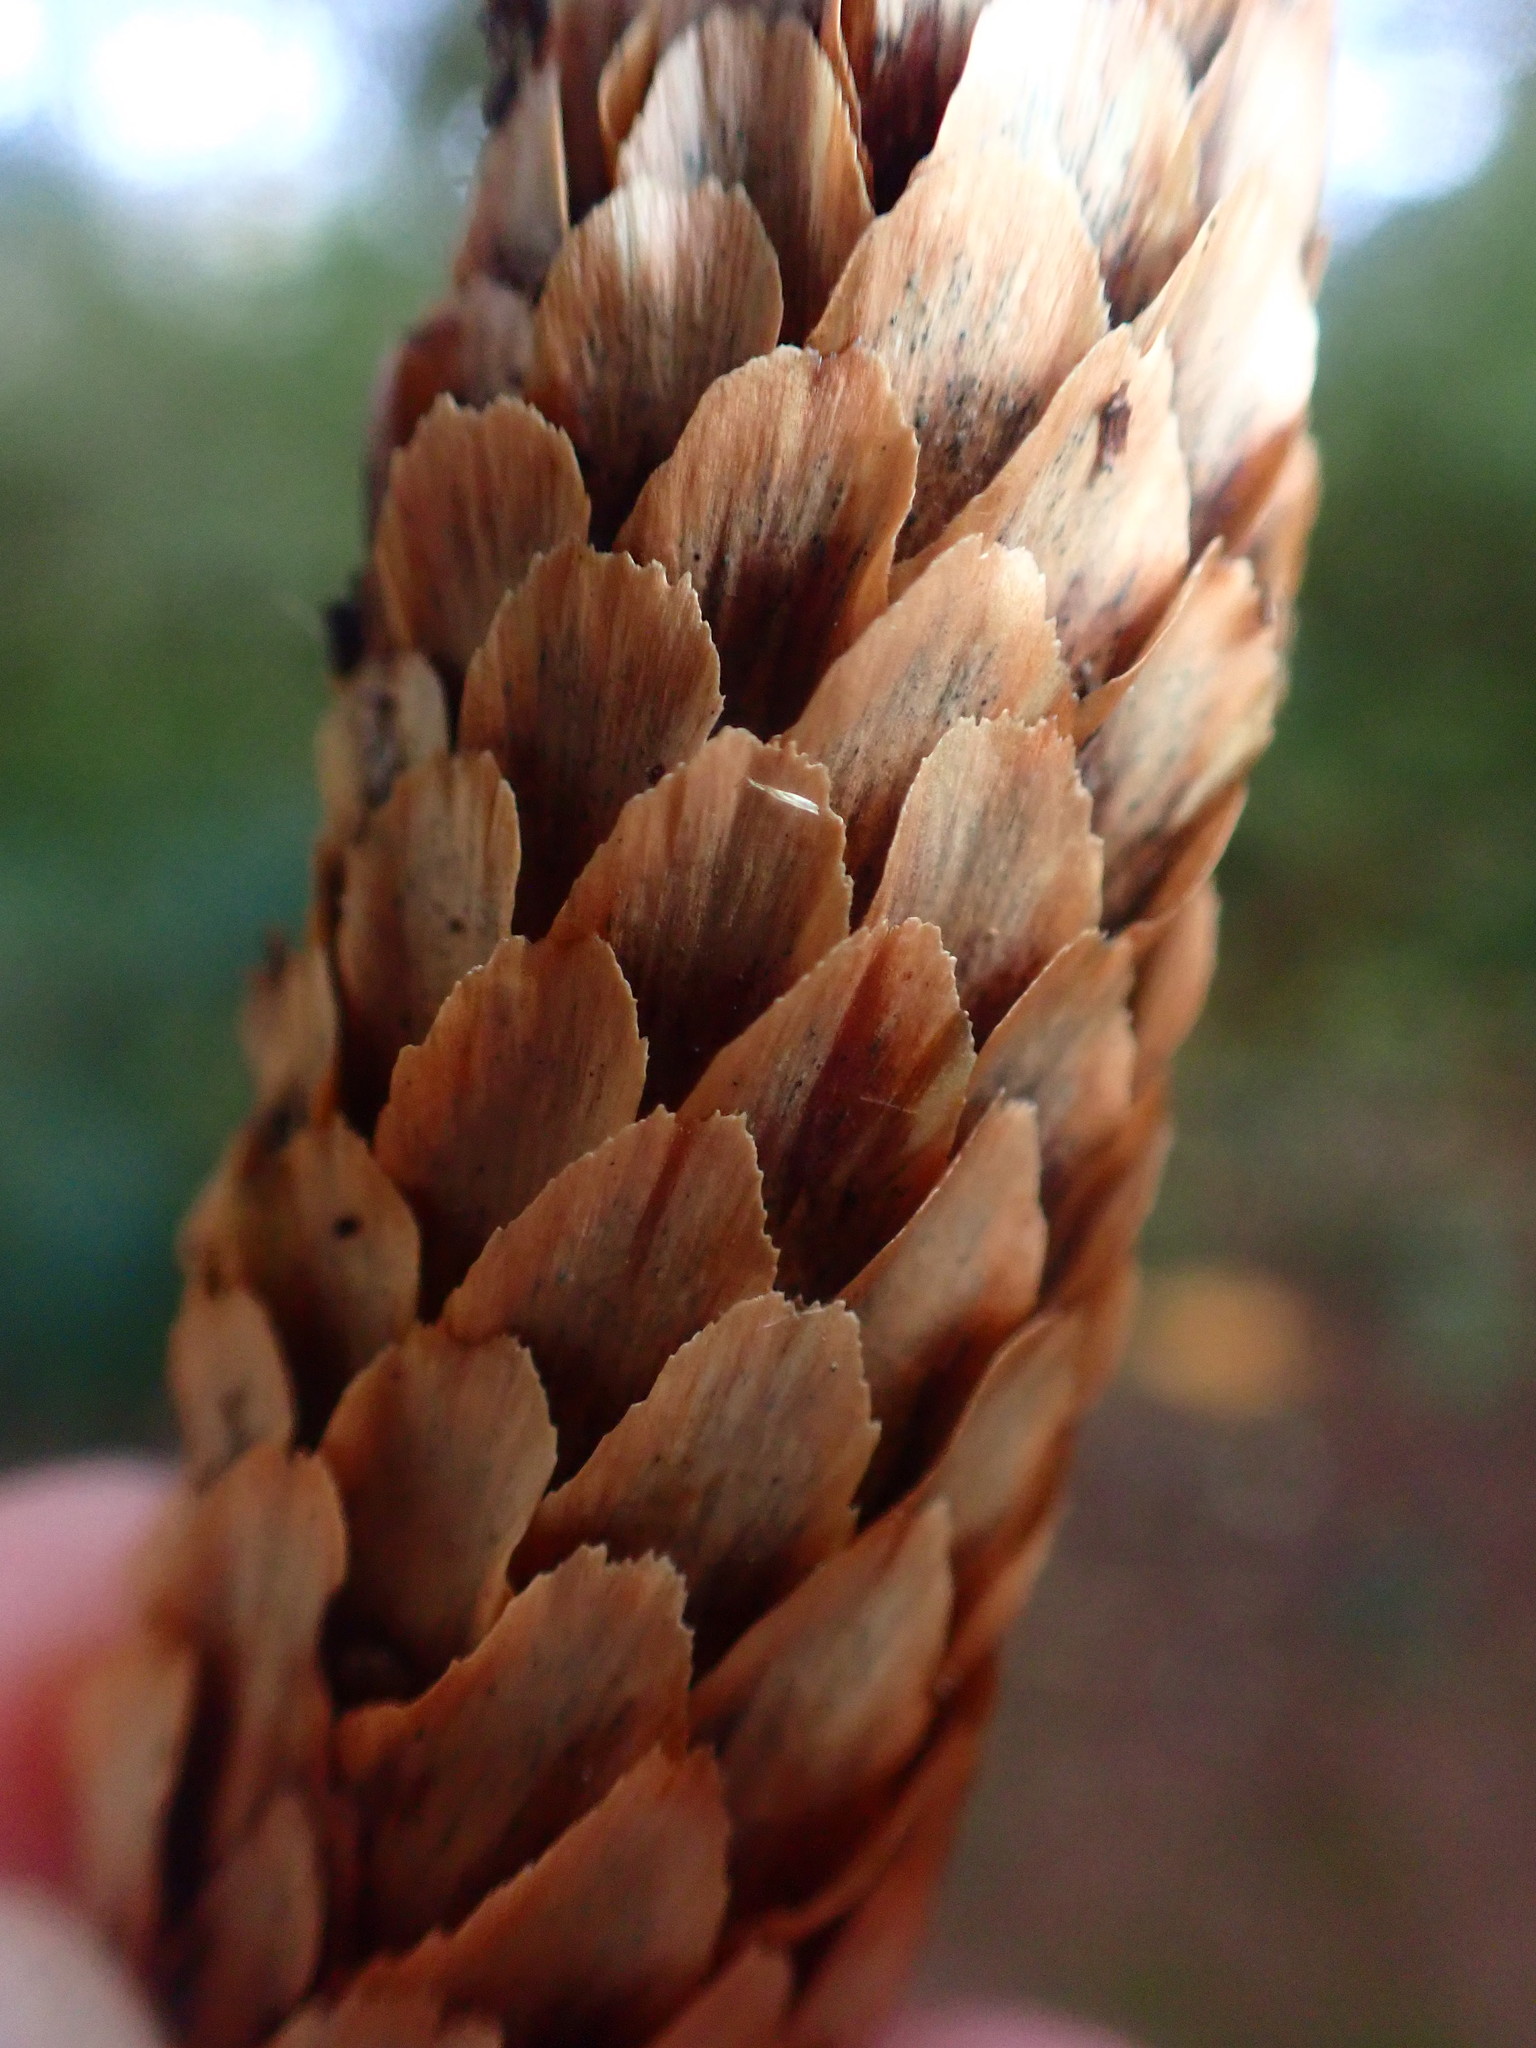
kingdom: Plantae
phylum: Tracheophyta
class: Pinopsida
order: Pinales
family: Pinaceae
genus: Picea
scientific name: Picea sitchensis
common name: Sitka spruce
